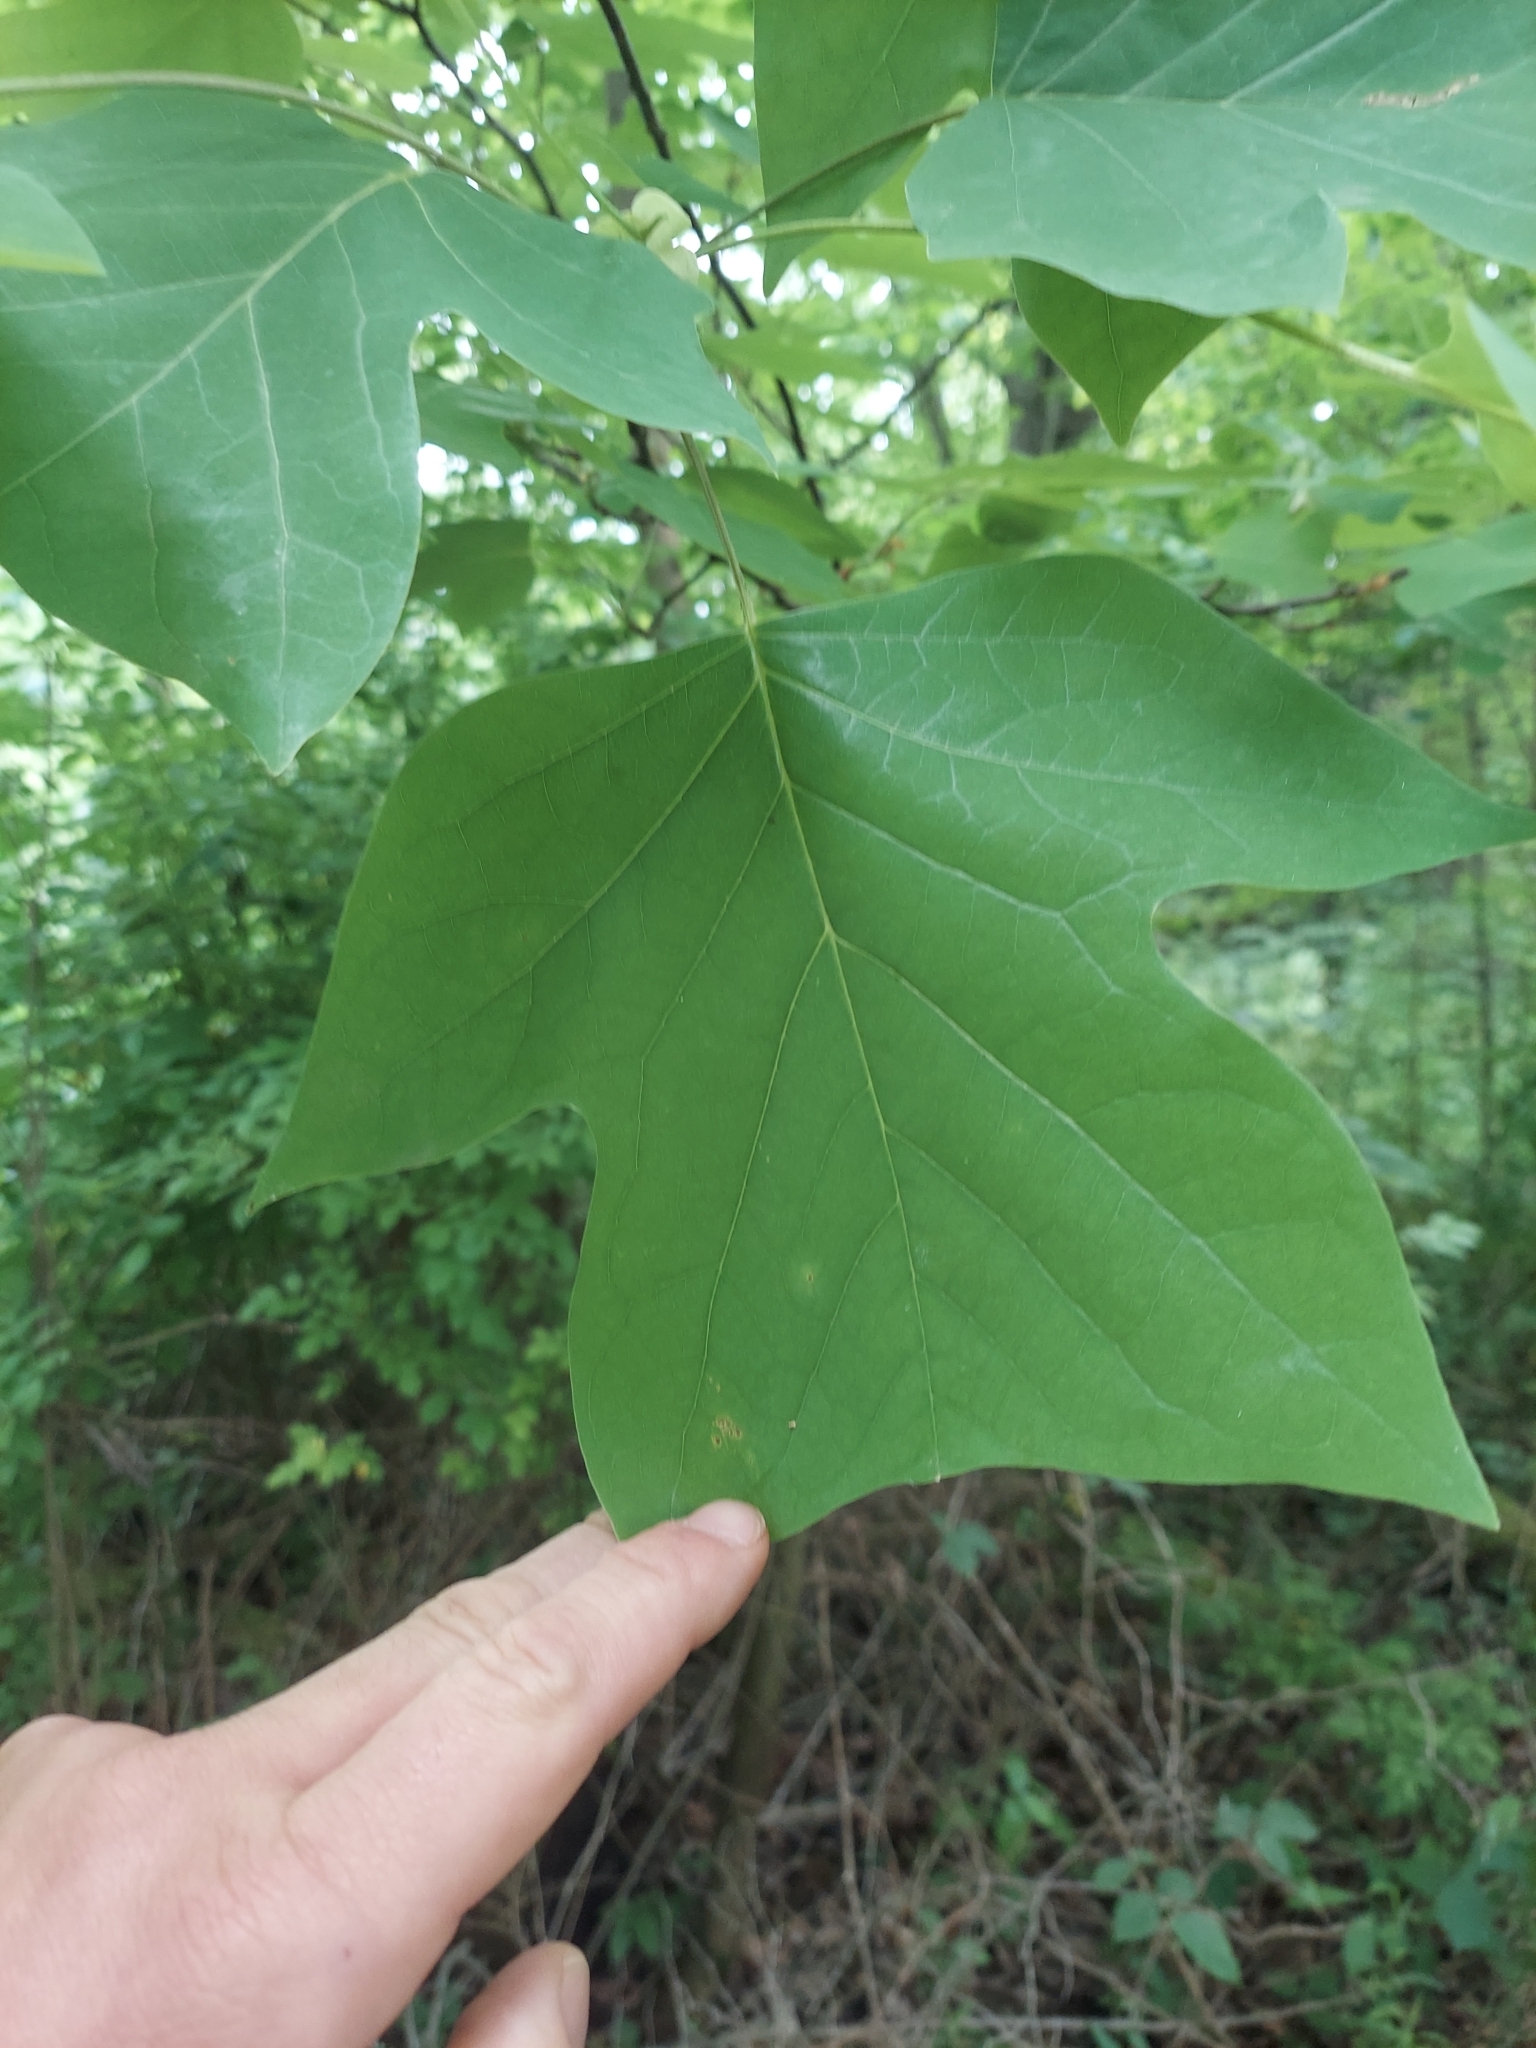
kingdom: Plantae
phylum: Tracheophyta
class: Magnoliopsida
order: Magnoliales
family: Magnoliaceae
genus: Liriodendron
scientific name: Liriodendron tulipifera
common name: Tulip tree
